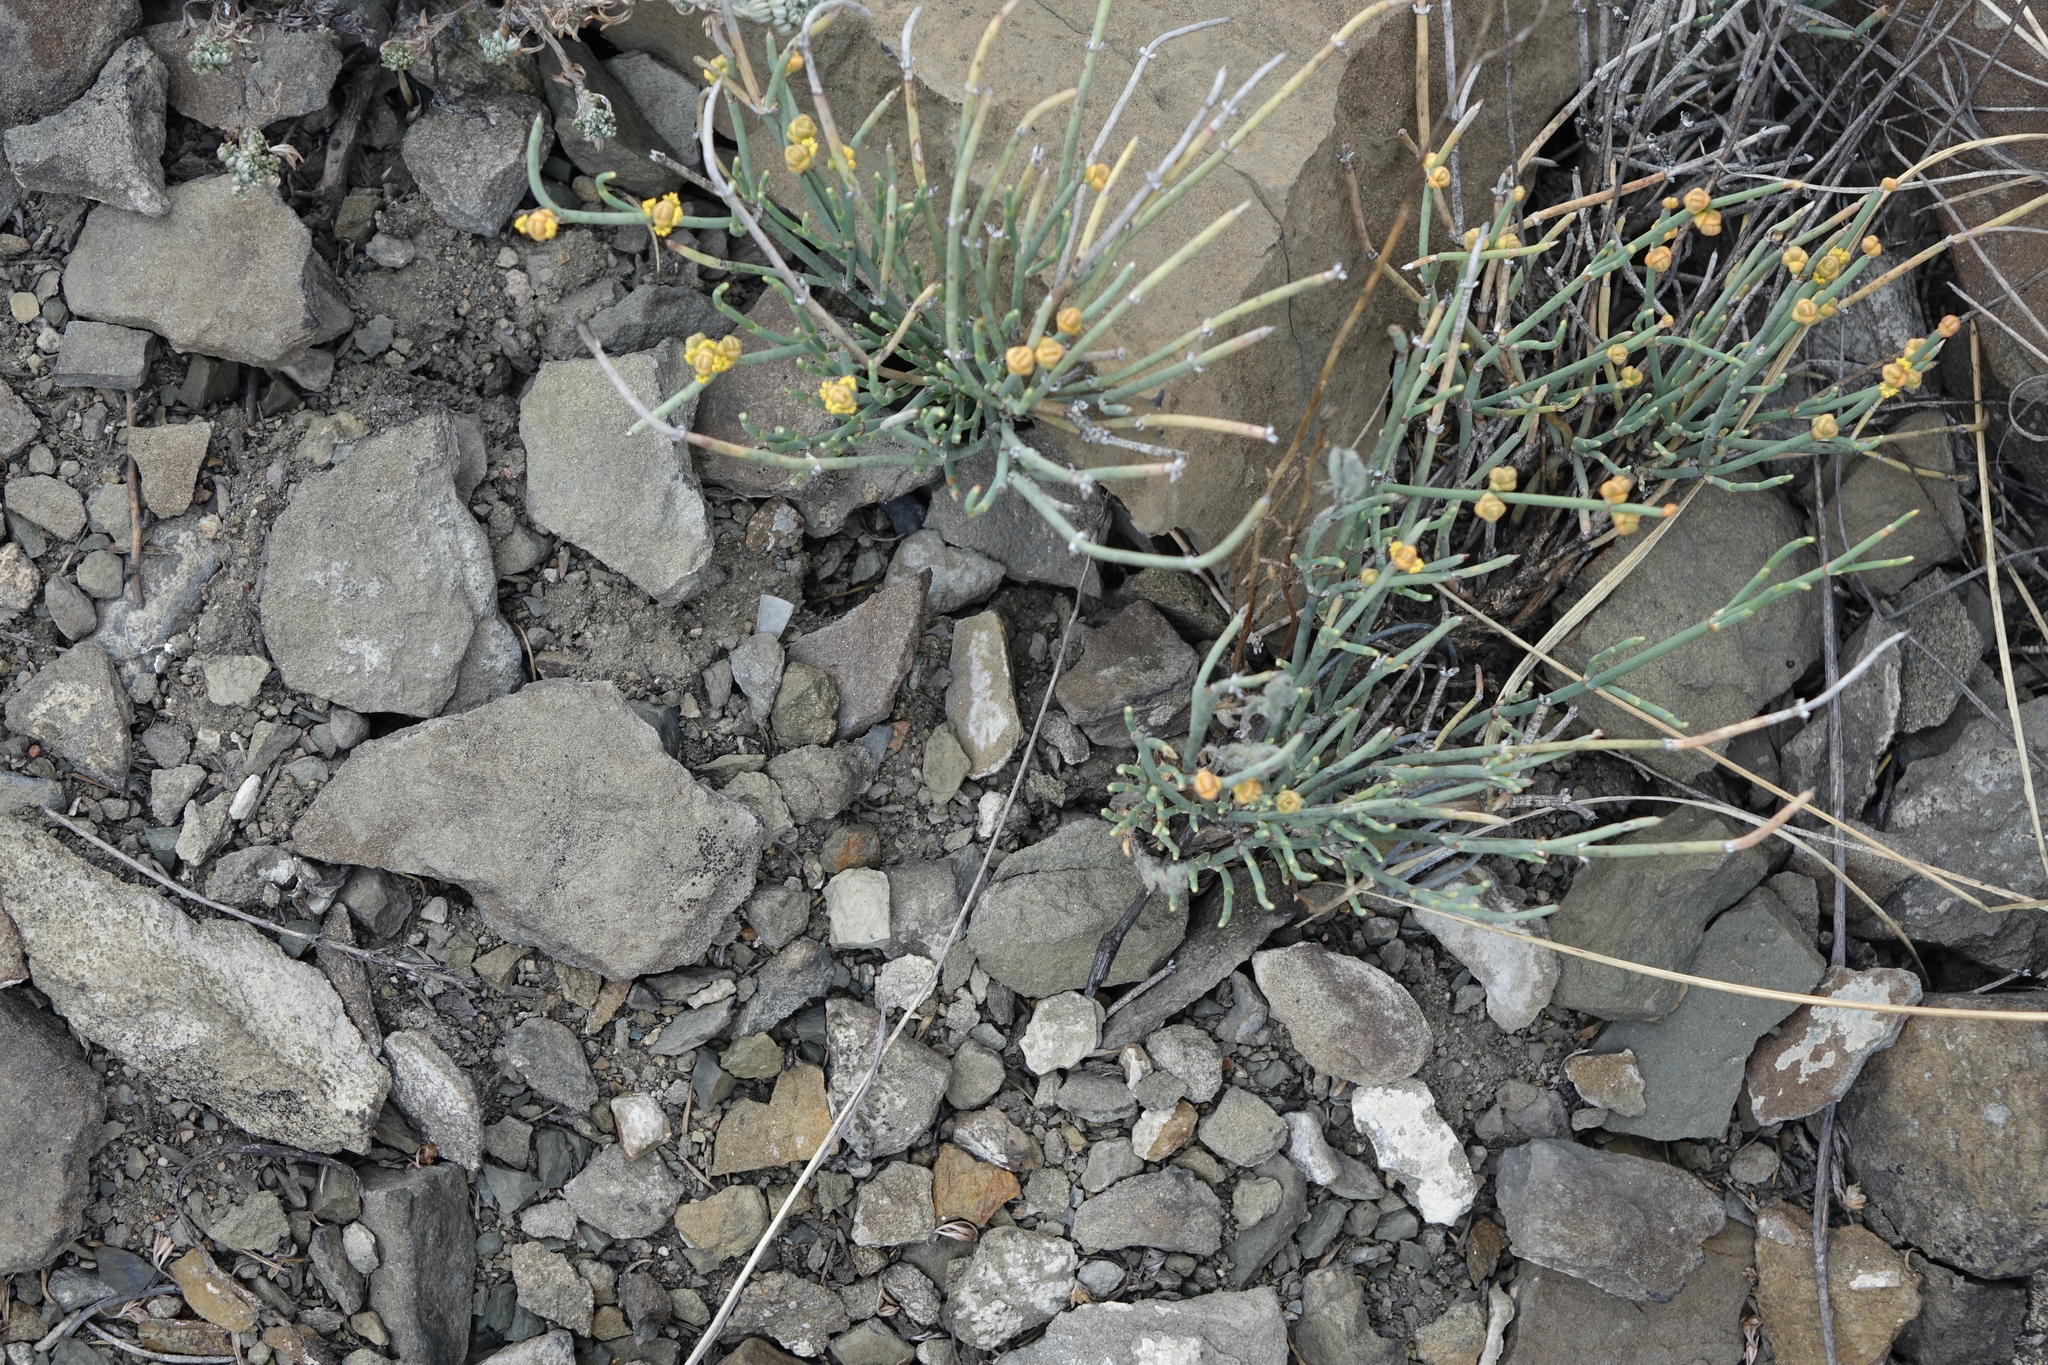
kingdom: Plantae
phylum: Tracheophyta
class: Gnetopsida
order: Ephedrales
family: Ephedraceae
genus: Ephedra
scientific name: Ephedra monosperma
